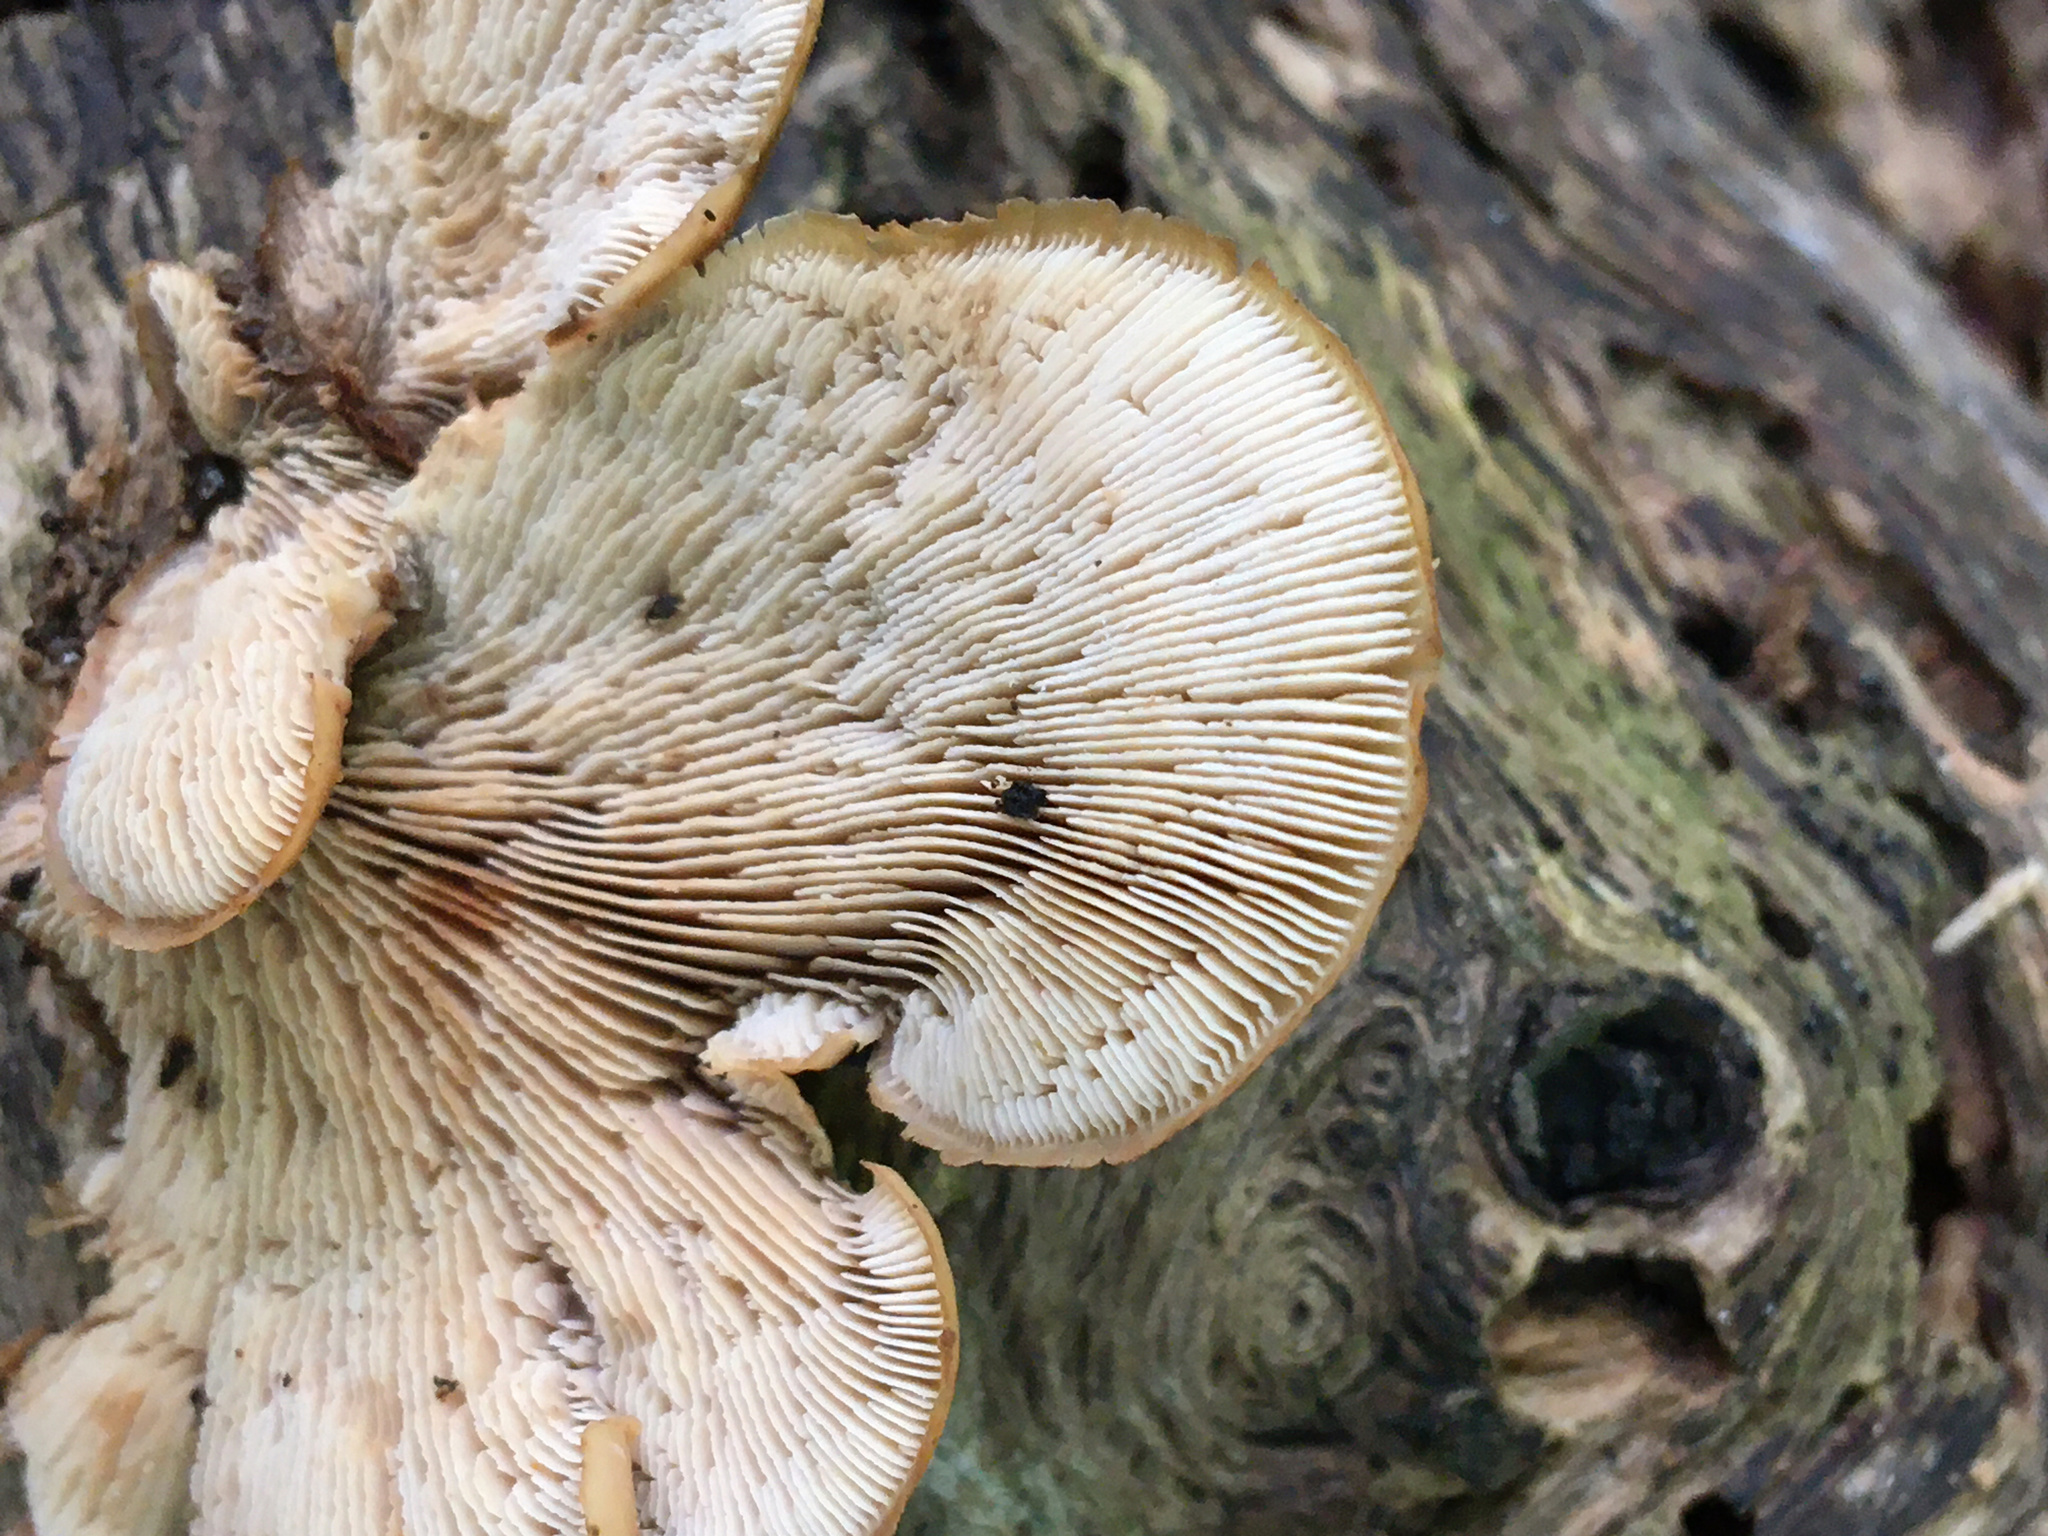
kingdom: Fungi
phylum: Basidiomycota
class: Agaricomycetes
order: Russulales
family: Auriscalpiaceae
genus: Lentinellus
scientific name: Lentinellus ursinus
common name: Bear lentinus
